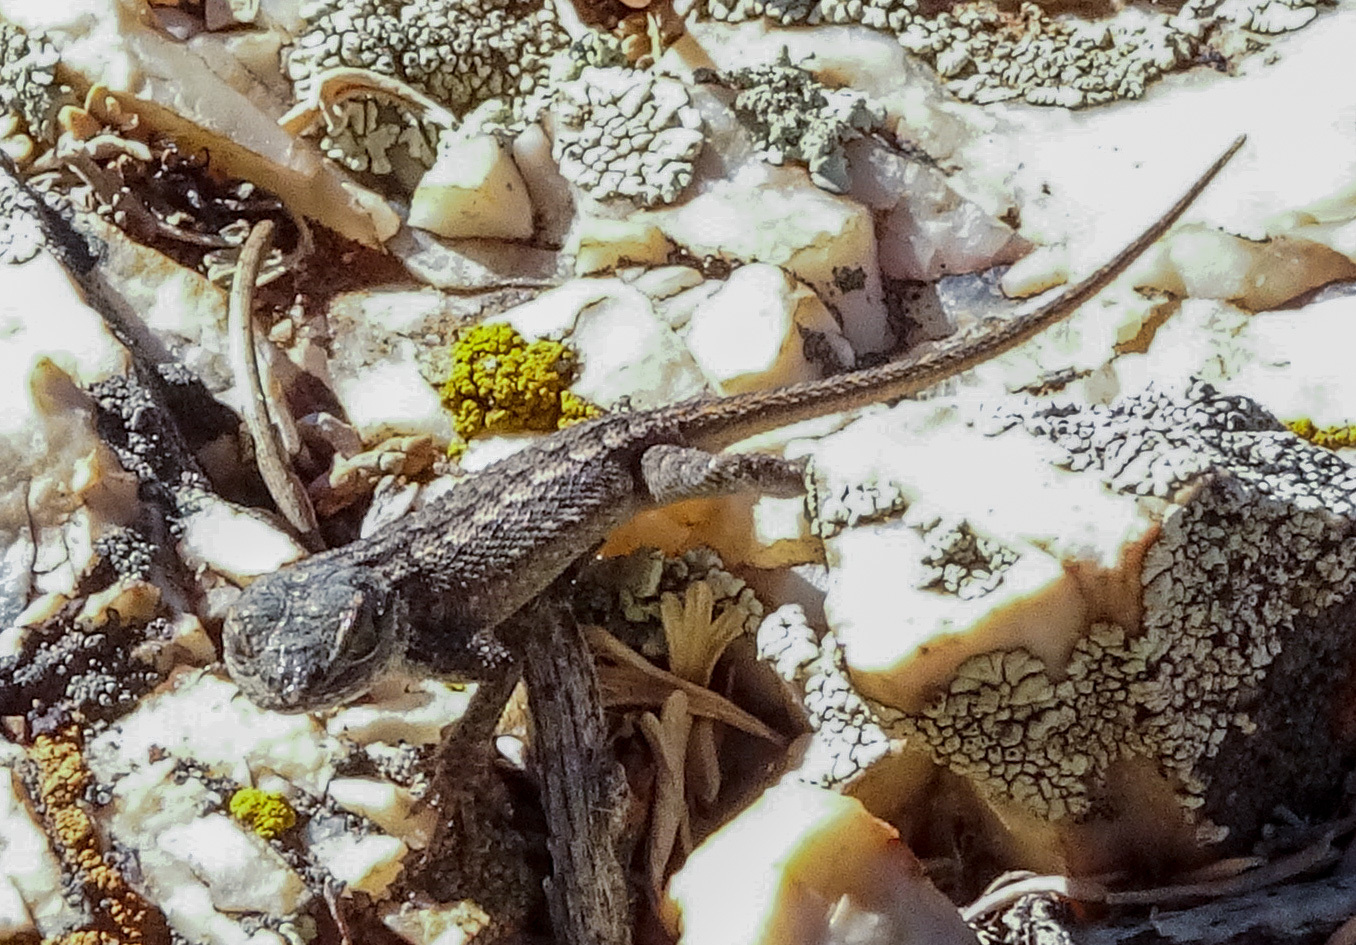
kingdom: Animalia
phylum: Chordata
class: Squamata
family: Phrynosomatidae
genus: Sceloporus
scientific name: Sceloporus tristichus
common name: Plateau fence lizard
